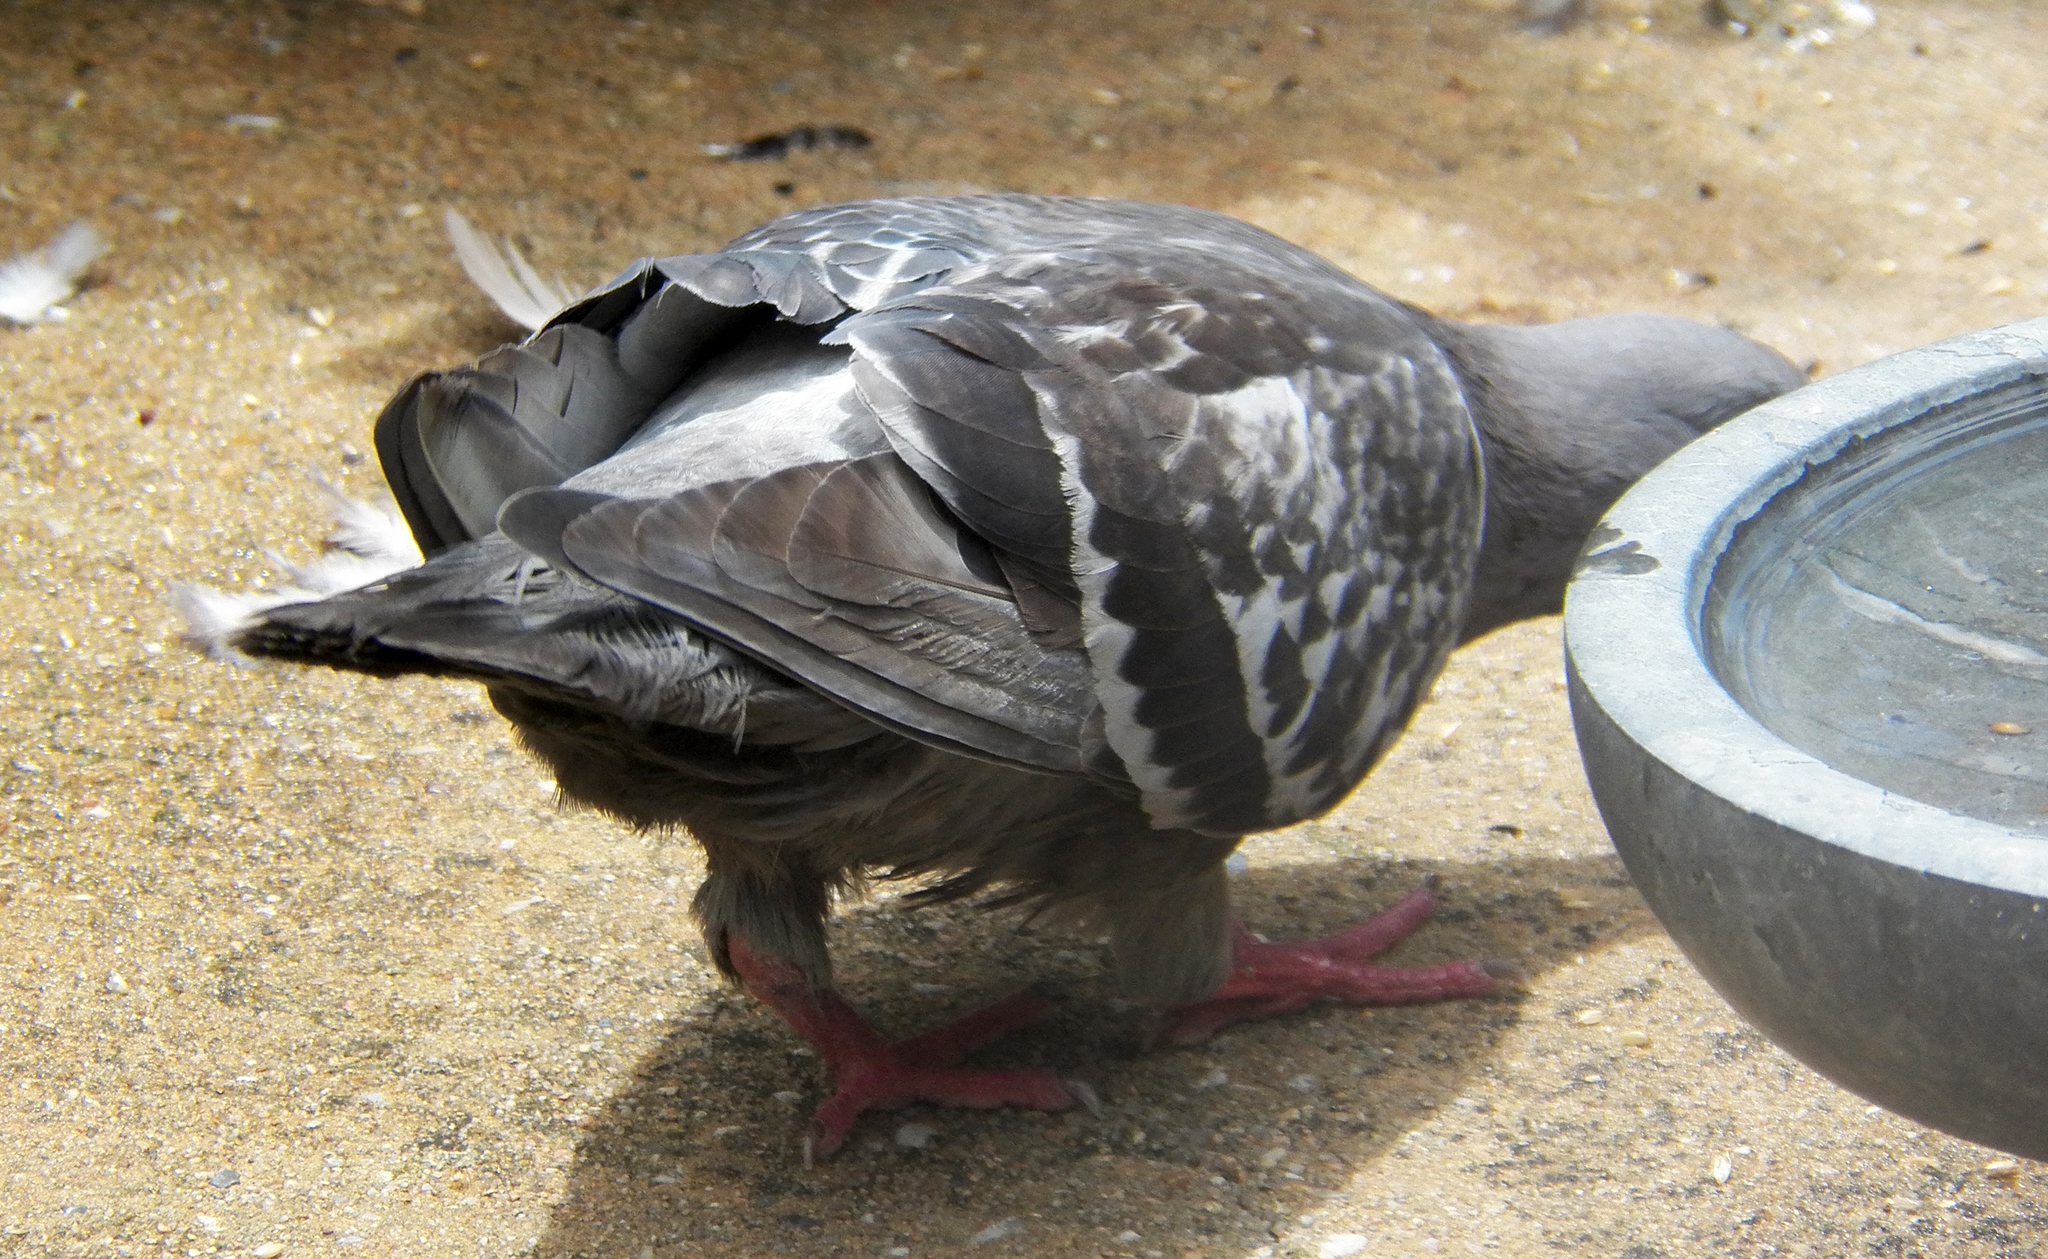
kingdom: Animalia
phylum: Chordata
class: Aves
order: Columbiformes
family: Columbidae
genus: Columba
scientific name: Columba livia
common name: Rock pigeon
